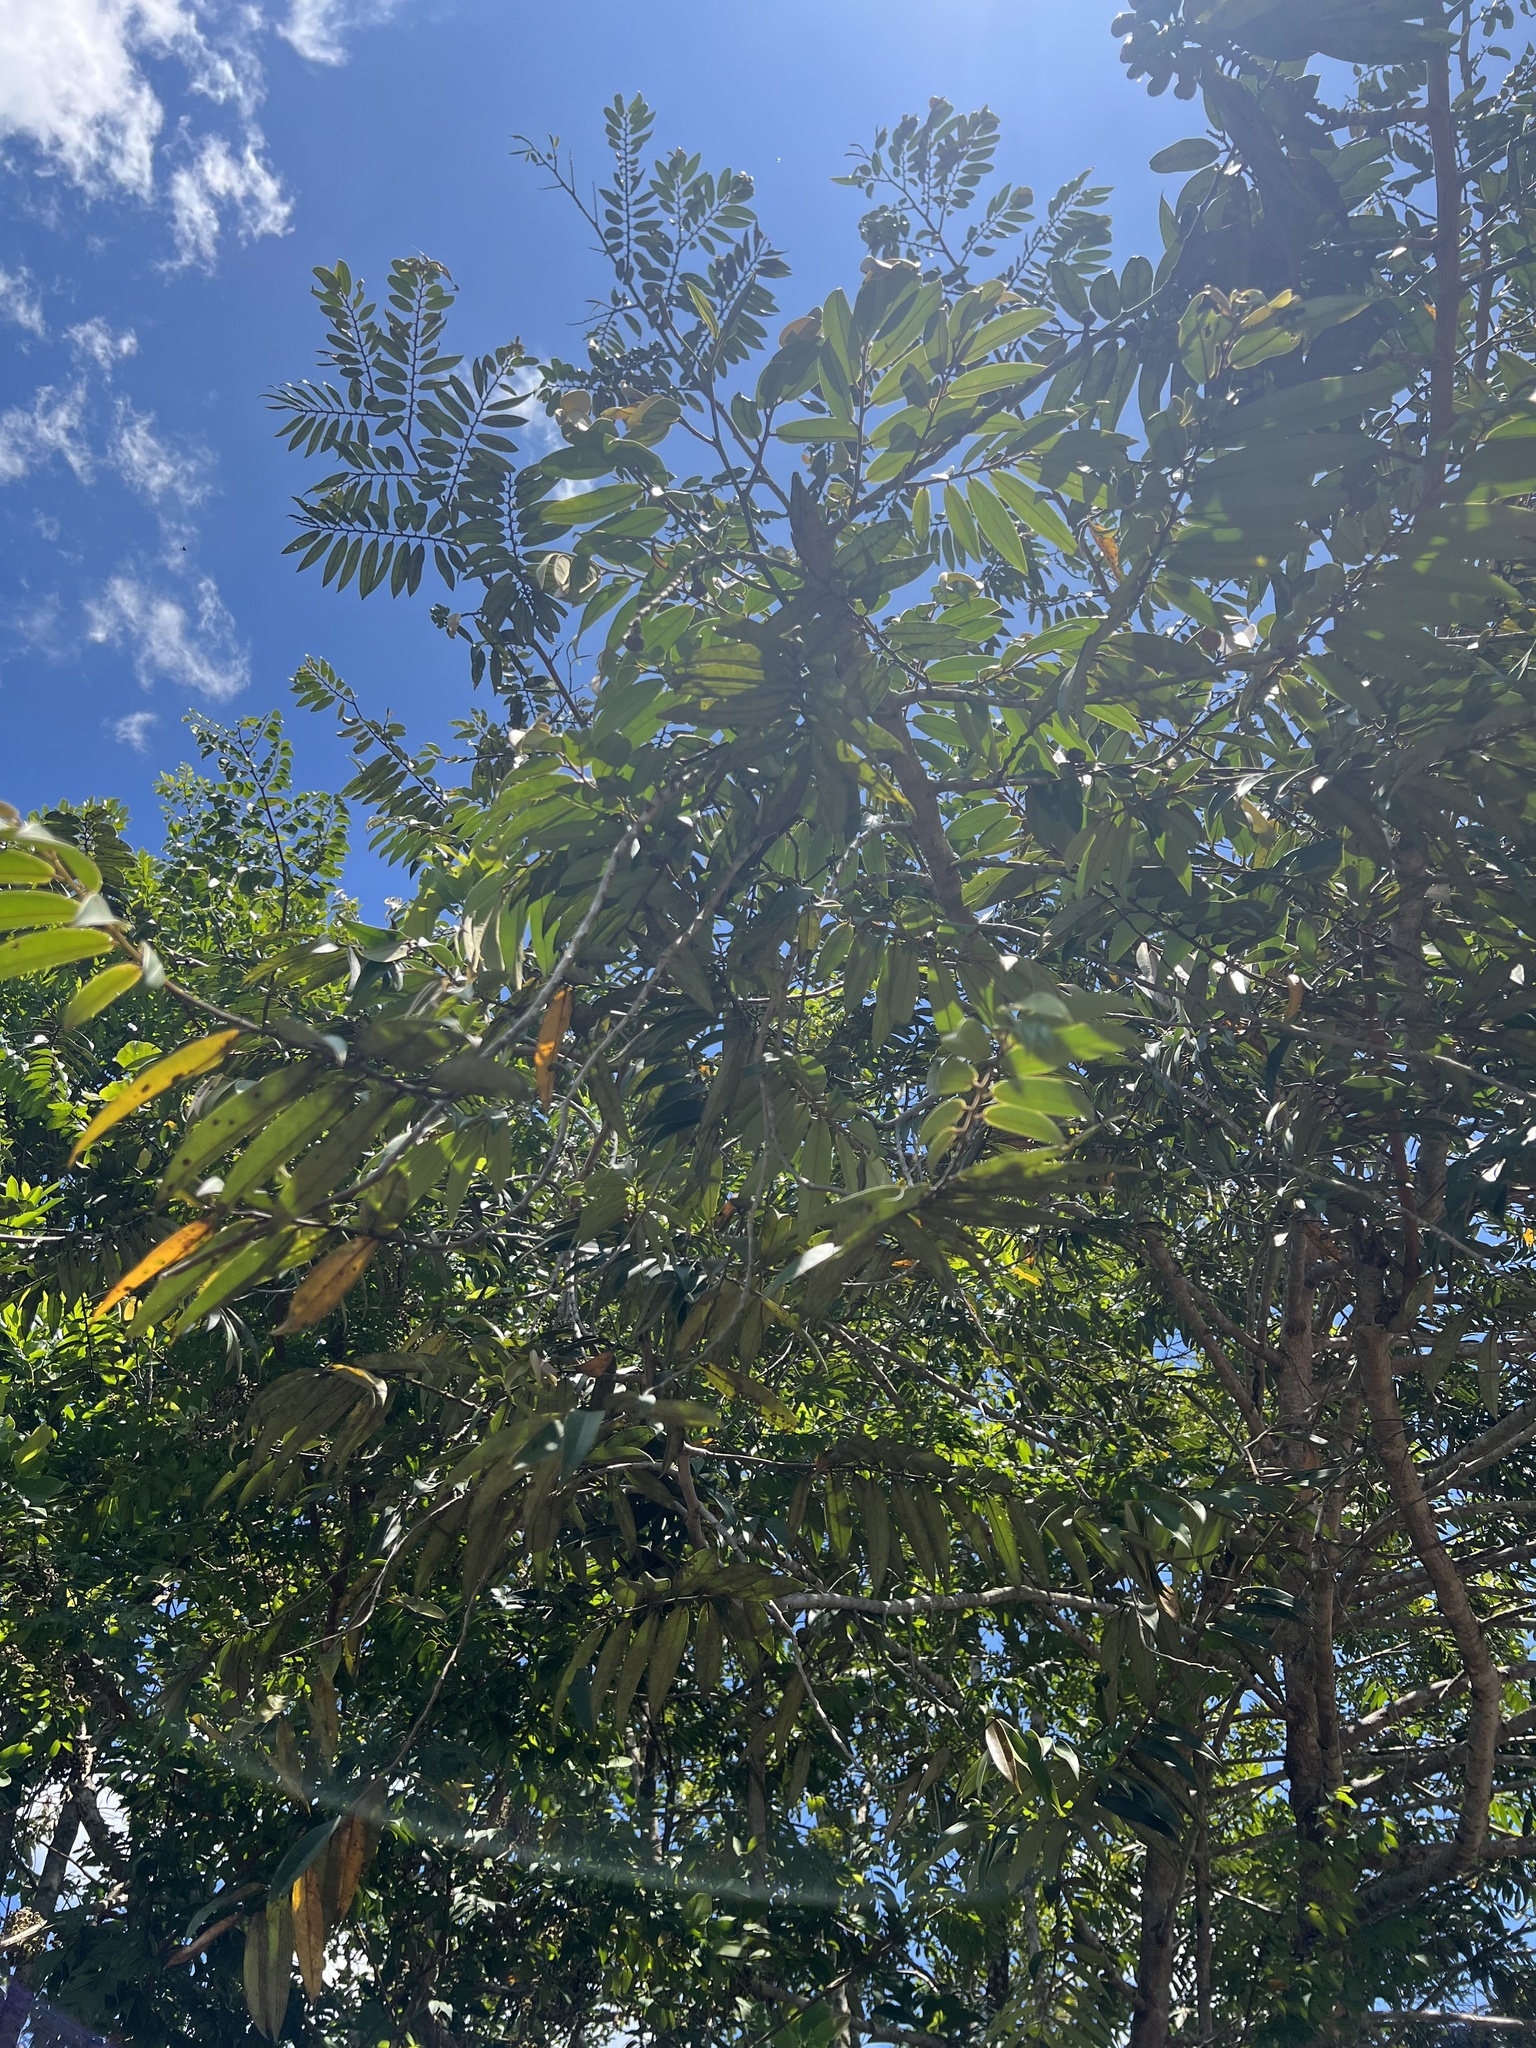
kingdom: Plantae
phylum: Tracheophyta
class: Magnoliopsida
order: Magnoliales
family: Annonaceae
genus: Xylopia
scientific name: Xylopia aromatica
